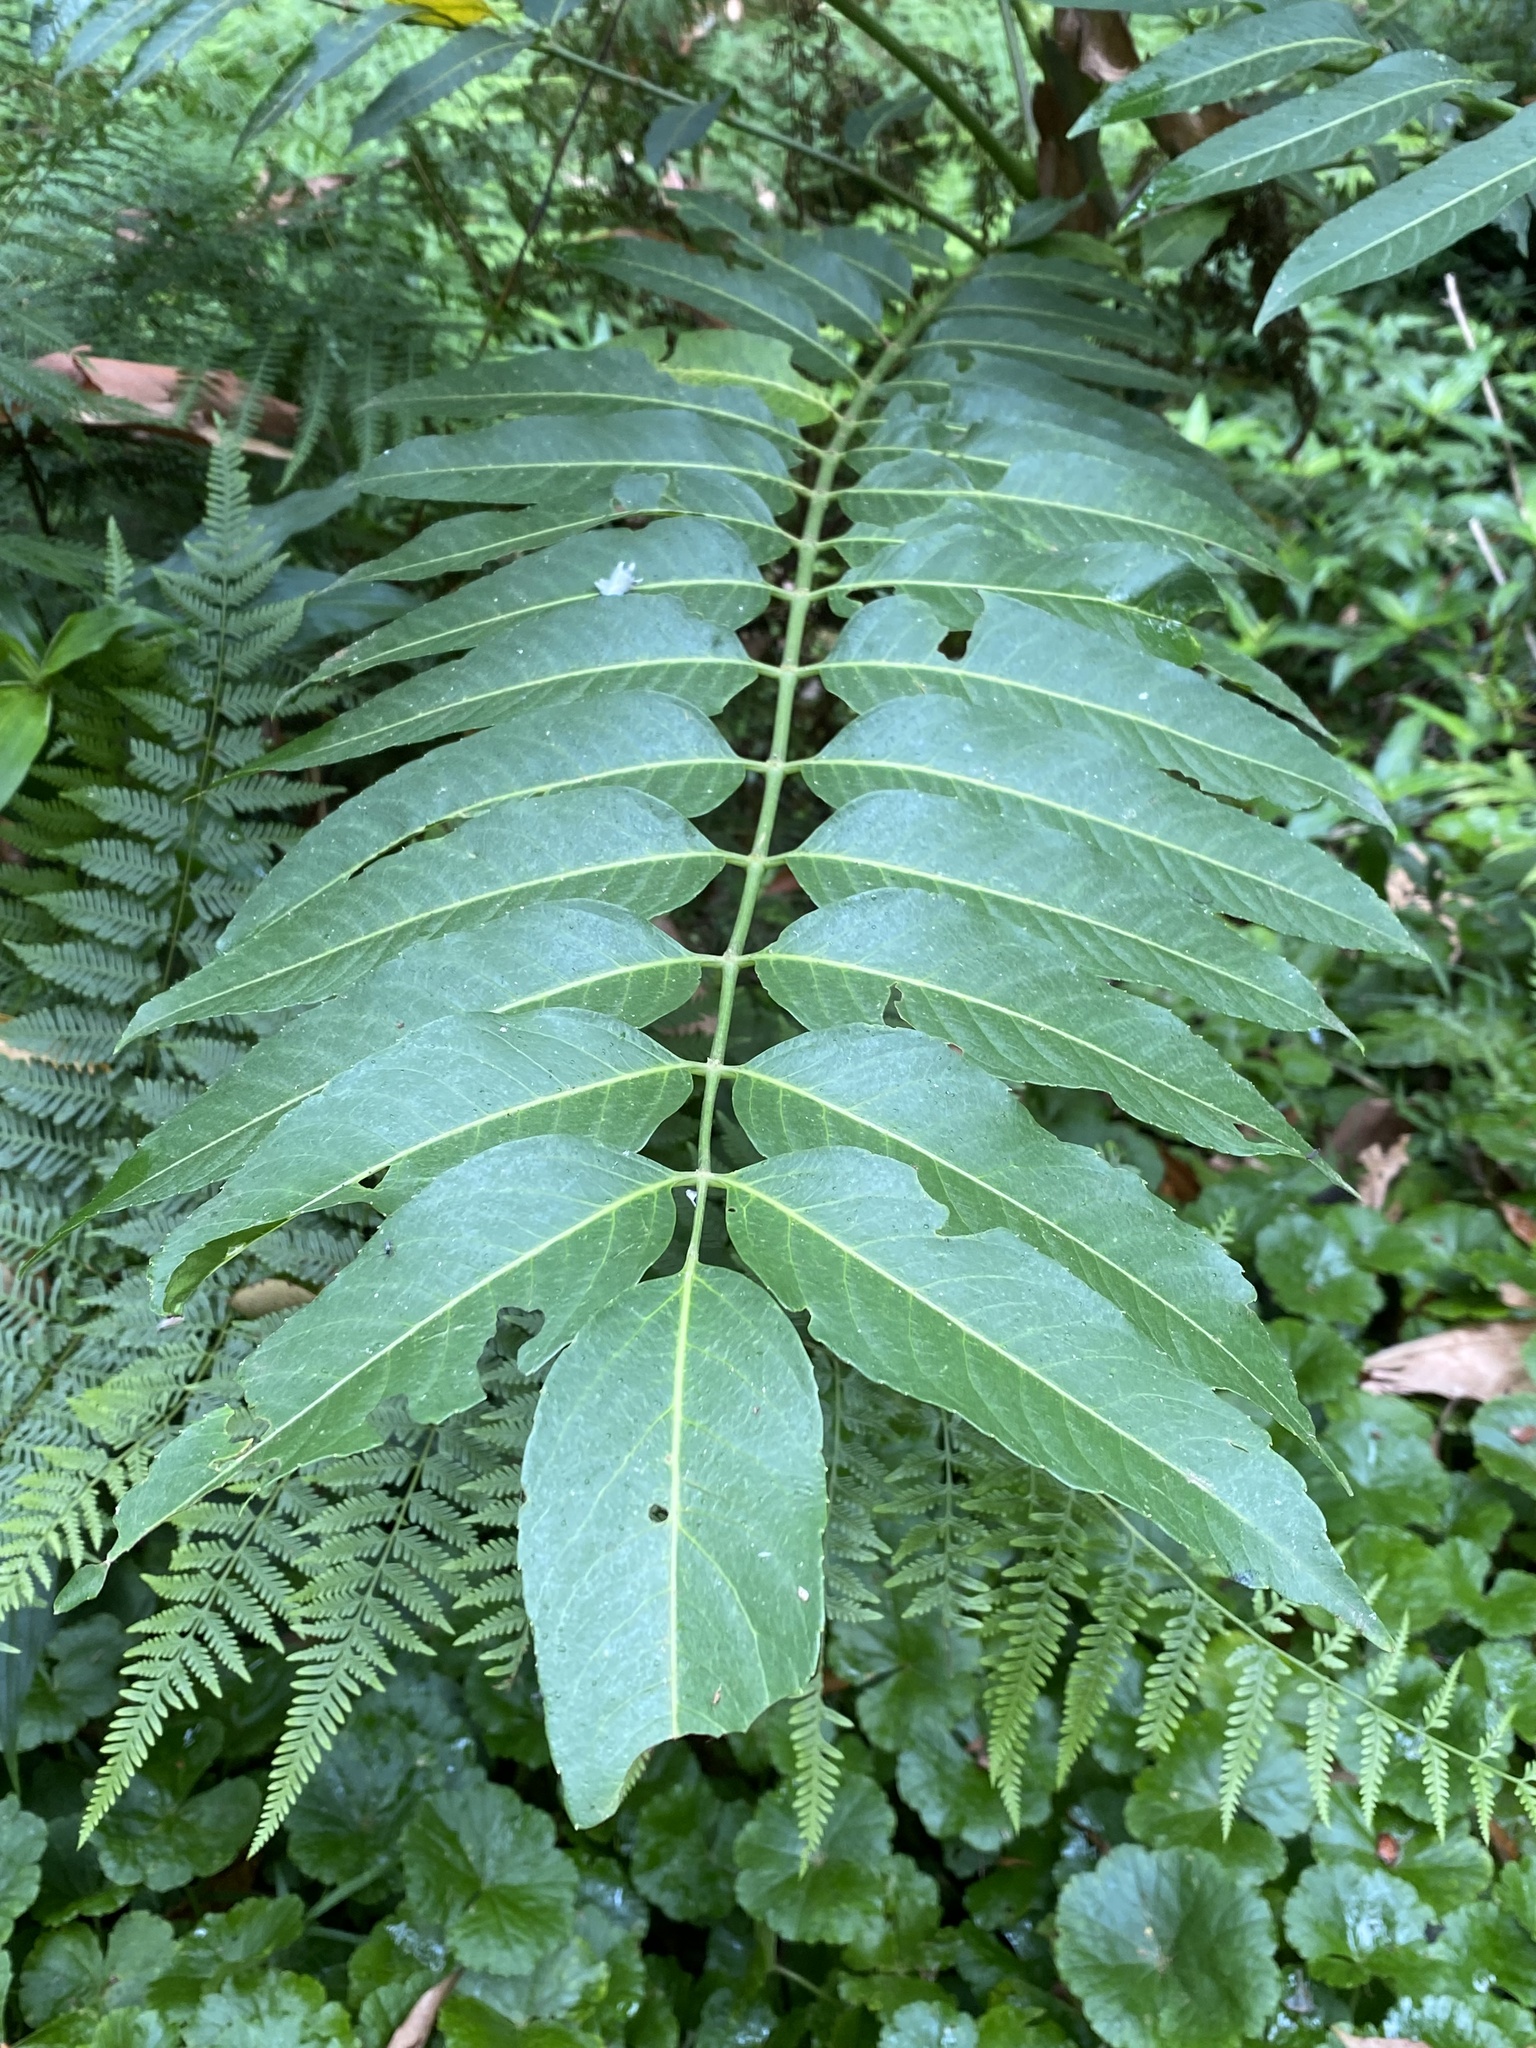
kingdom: Plantae
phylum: Tracheophyta
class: Magnoliopsida
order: Apiales
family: Araliaceae
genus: Polyscias
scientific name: Polyscias murrayi
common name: Pencil cedar
